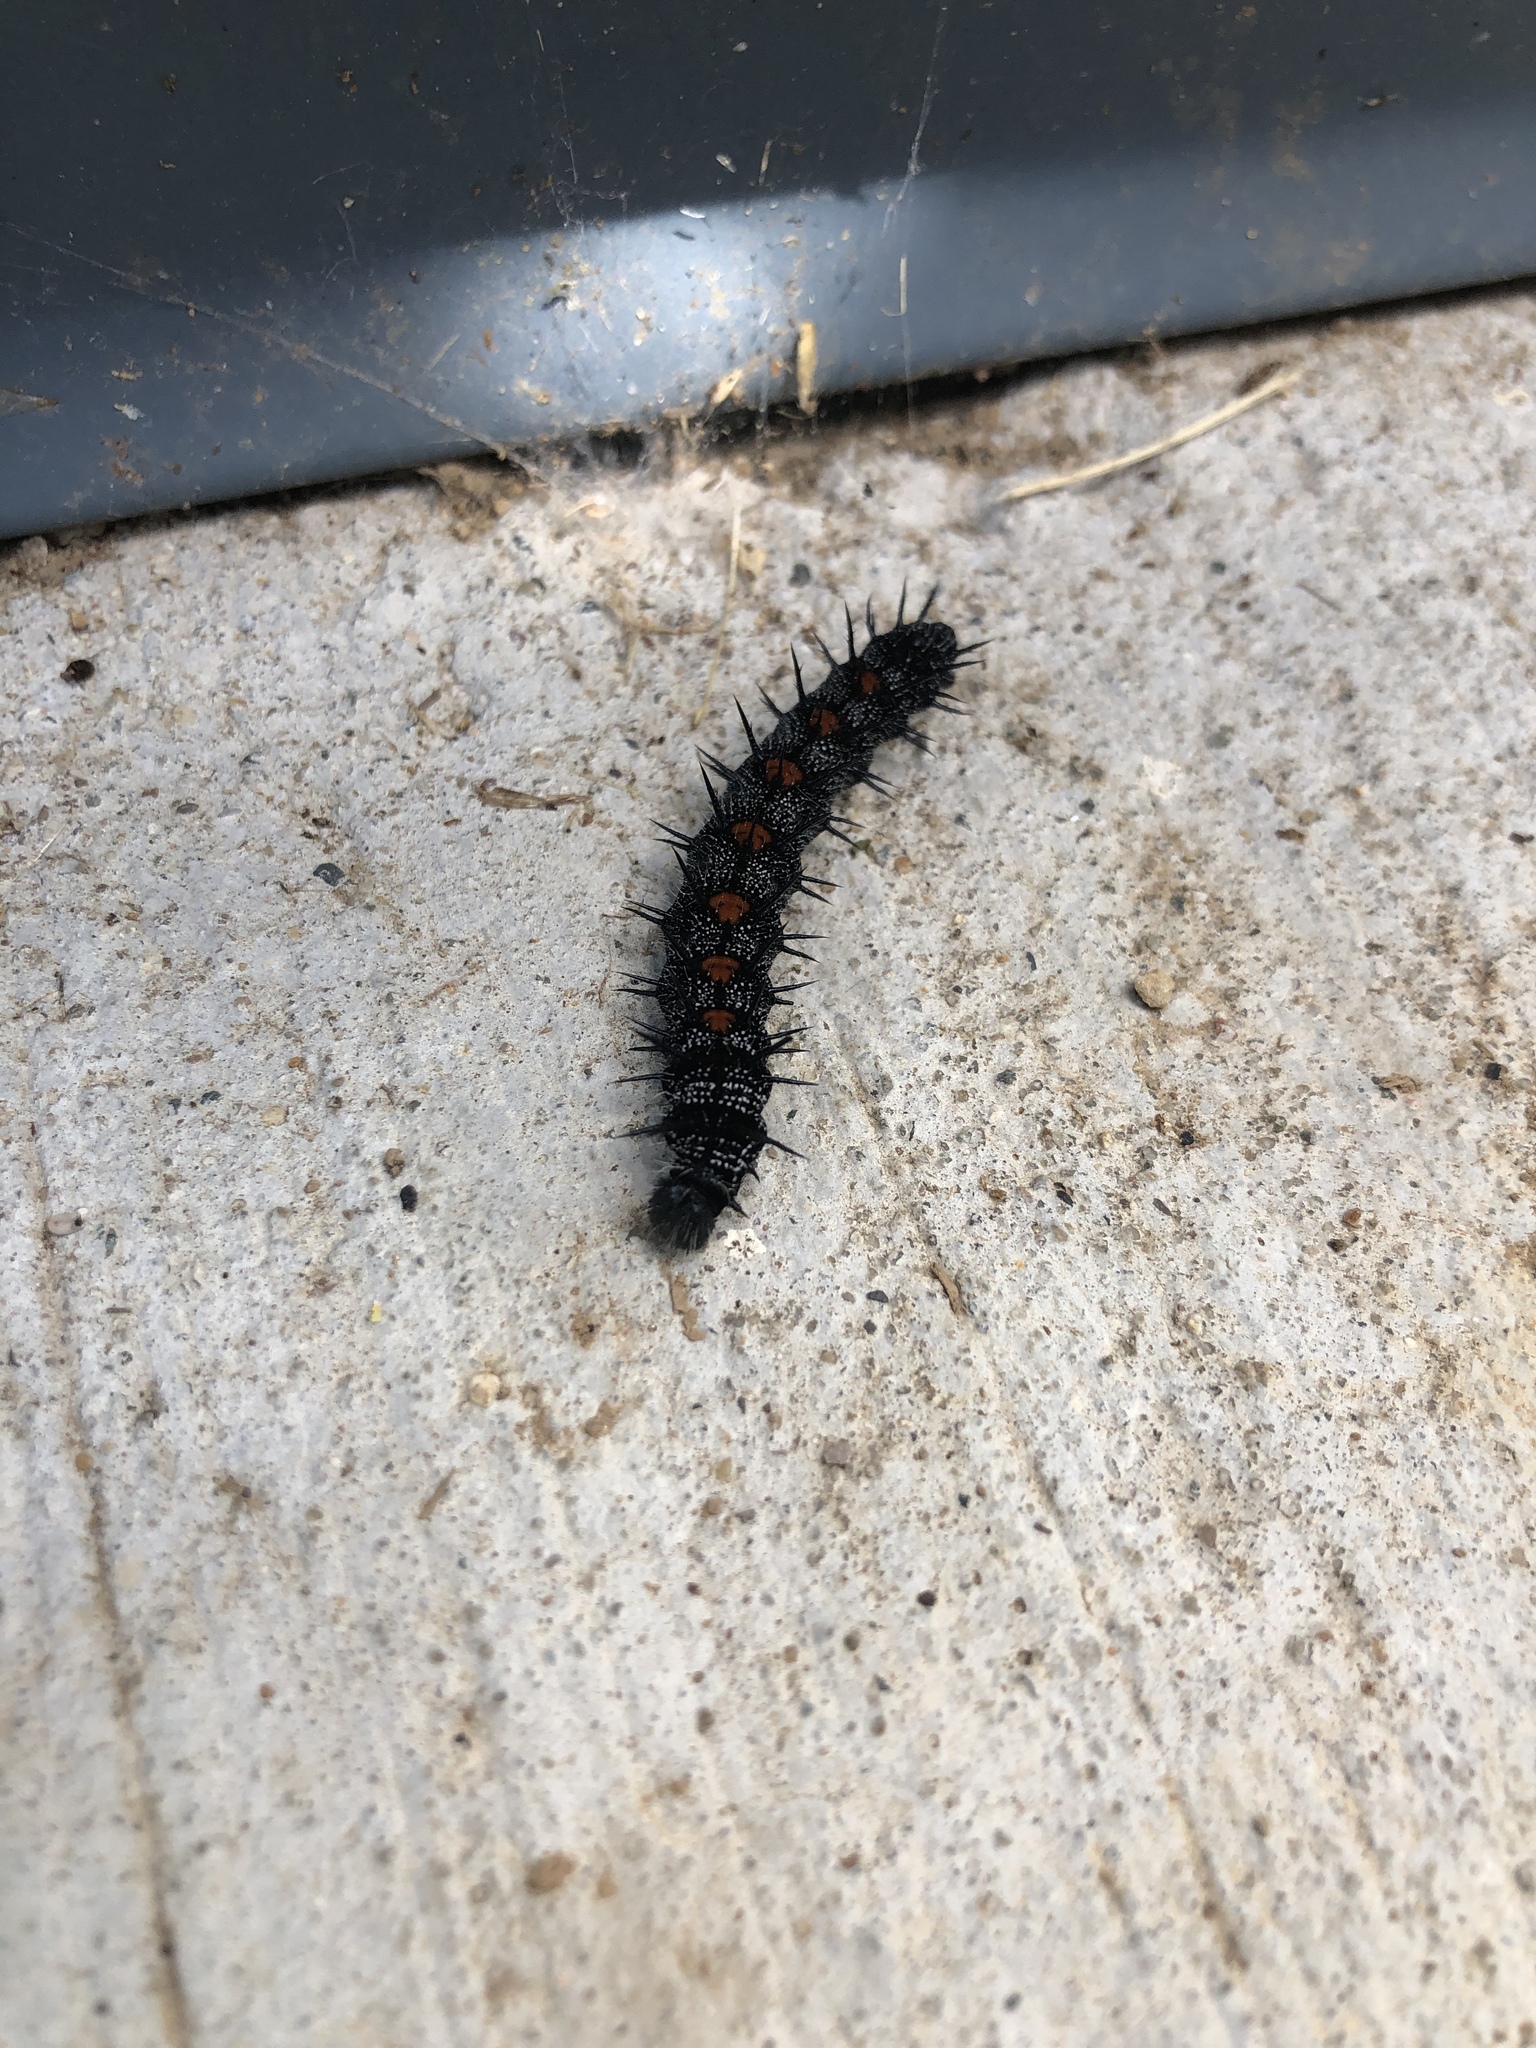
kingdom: Animalia
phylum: Arthropoda
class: Insecta
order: Lepidoptera
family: Nymphalidae
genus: Nymphalis
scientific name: Nymphalis antiopa
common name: Camberwell beauty
